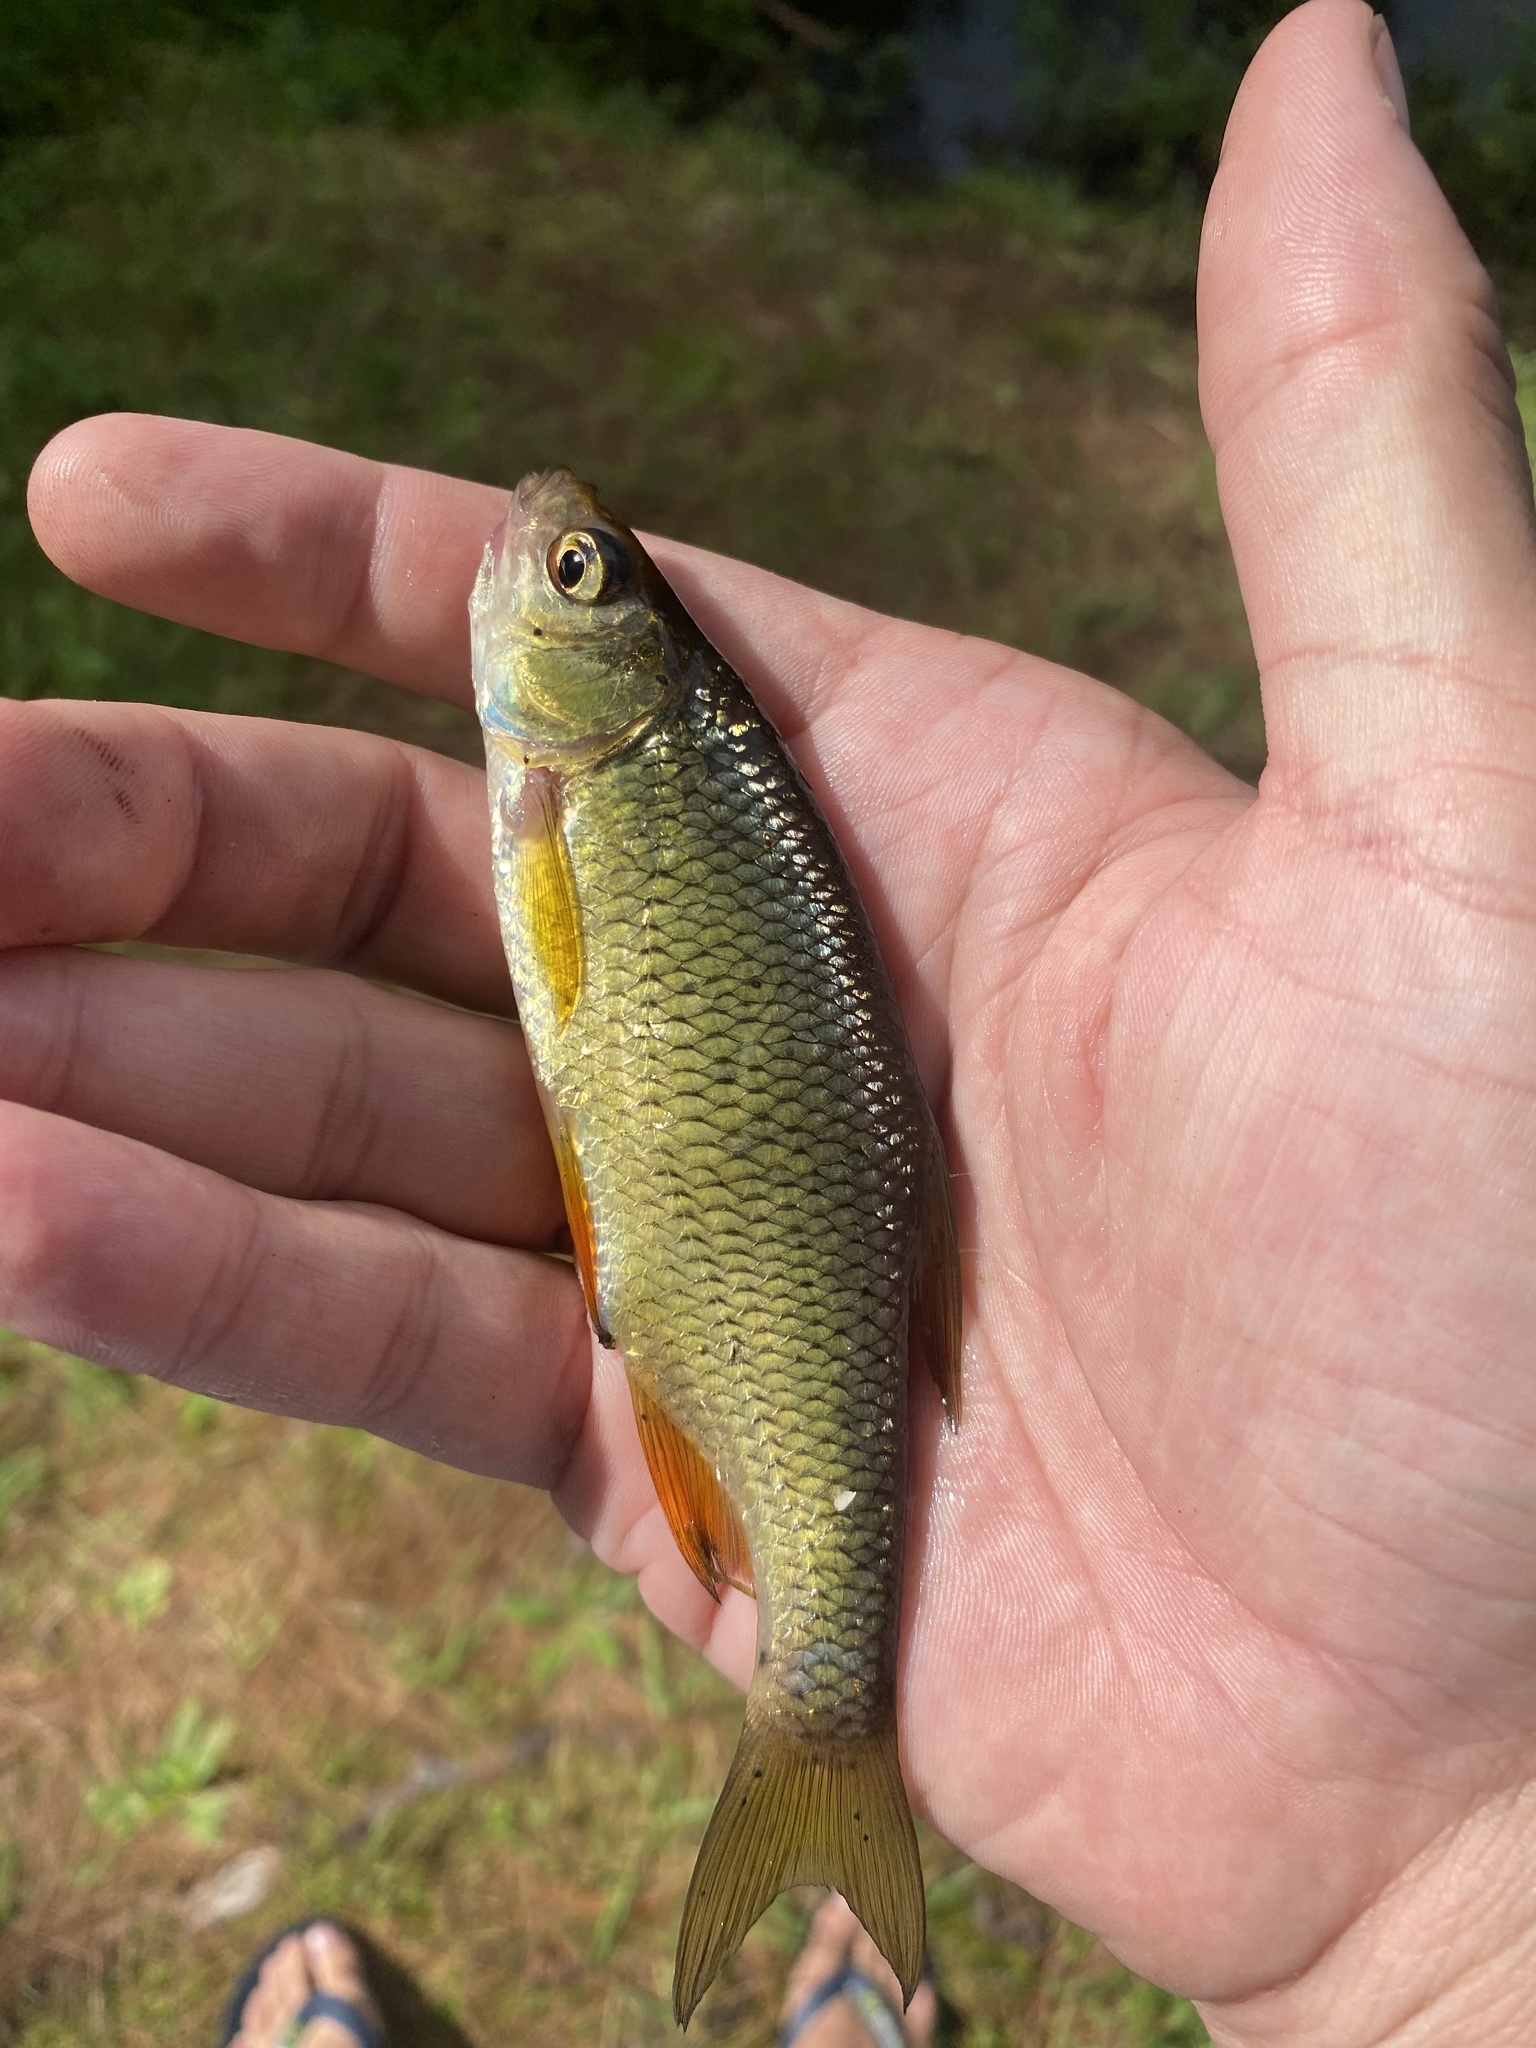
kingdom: Animalia
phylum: Chordata
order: Cypriniformes
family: Cyprinidae
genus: Notemigonus
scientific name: Notemigonus crysoleucas
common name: Golden shiner
